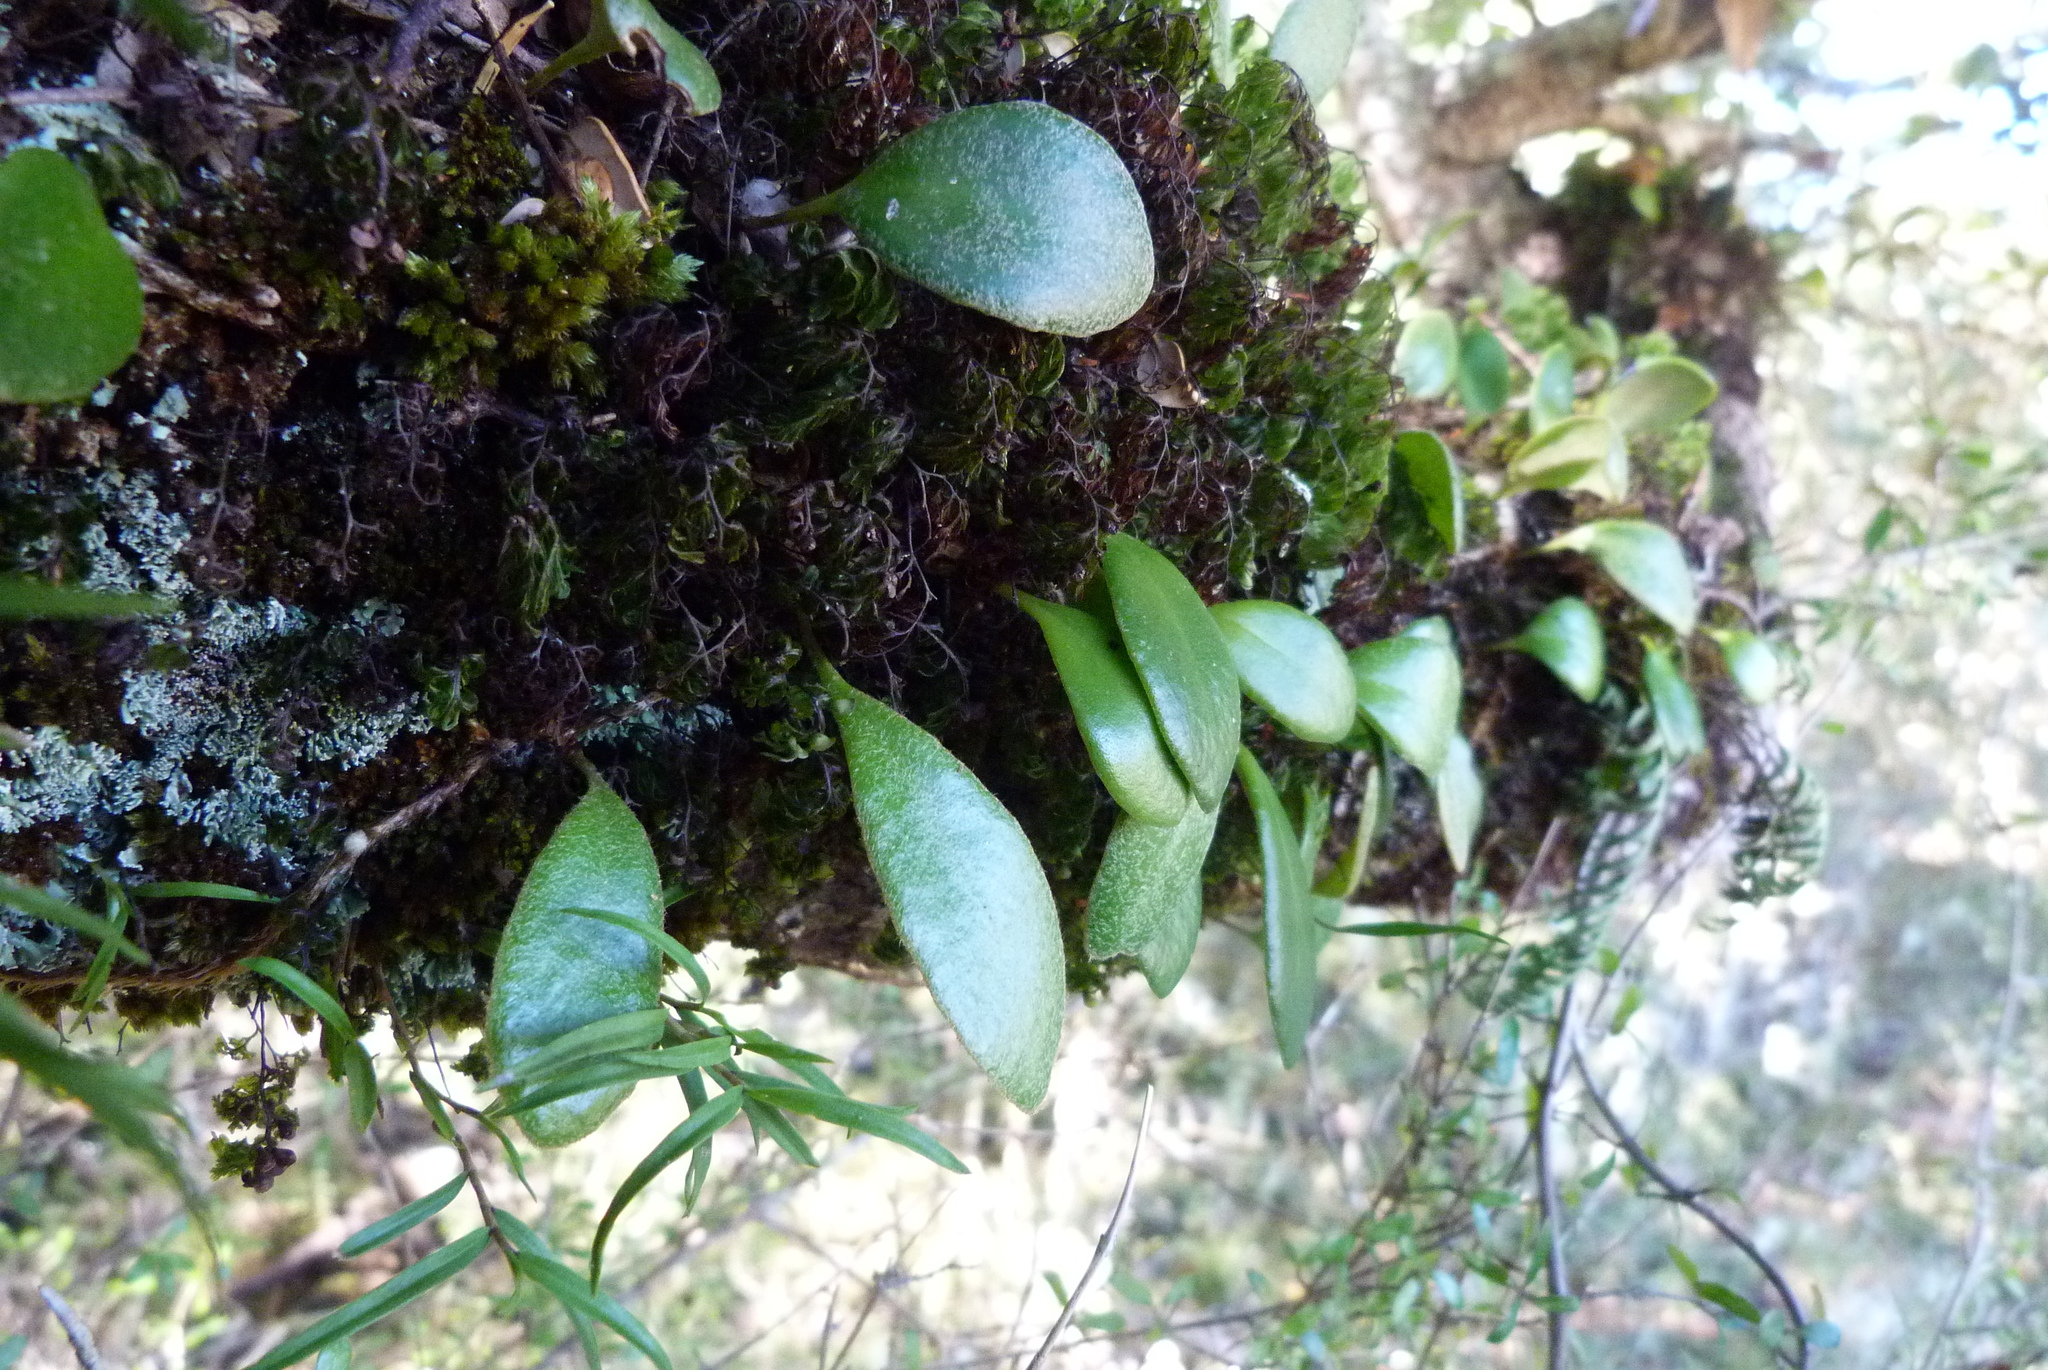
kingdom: Plantae
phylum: Tracheophyta
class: Polypodiopsida
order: Polypodiales
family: Polypodiaceae
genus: Pyrrosia
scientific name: Pyrrosia eleagnifolia
